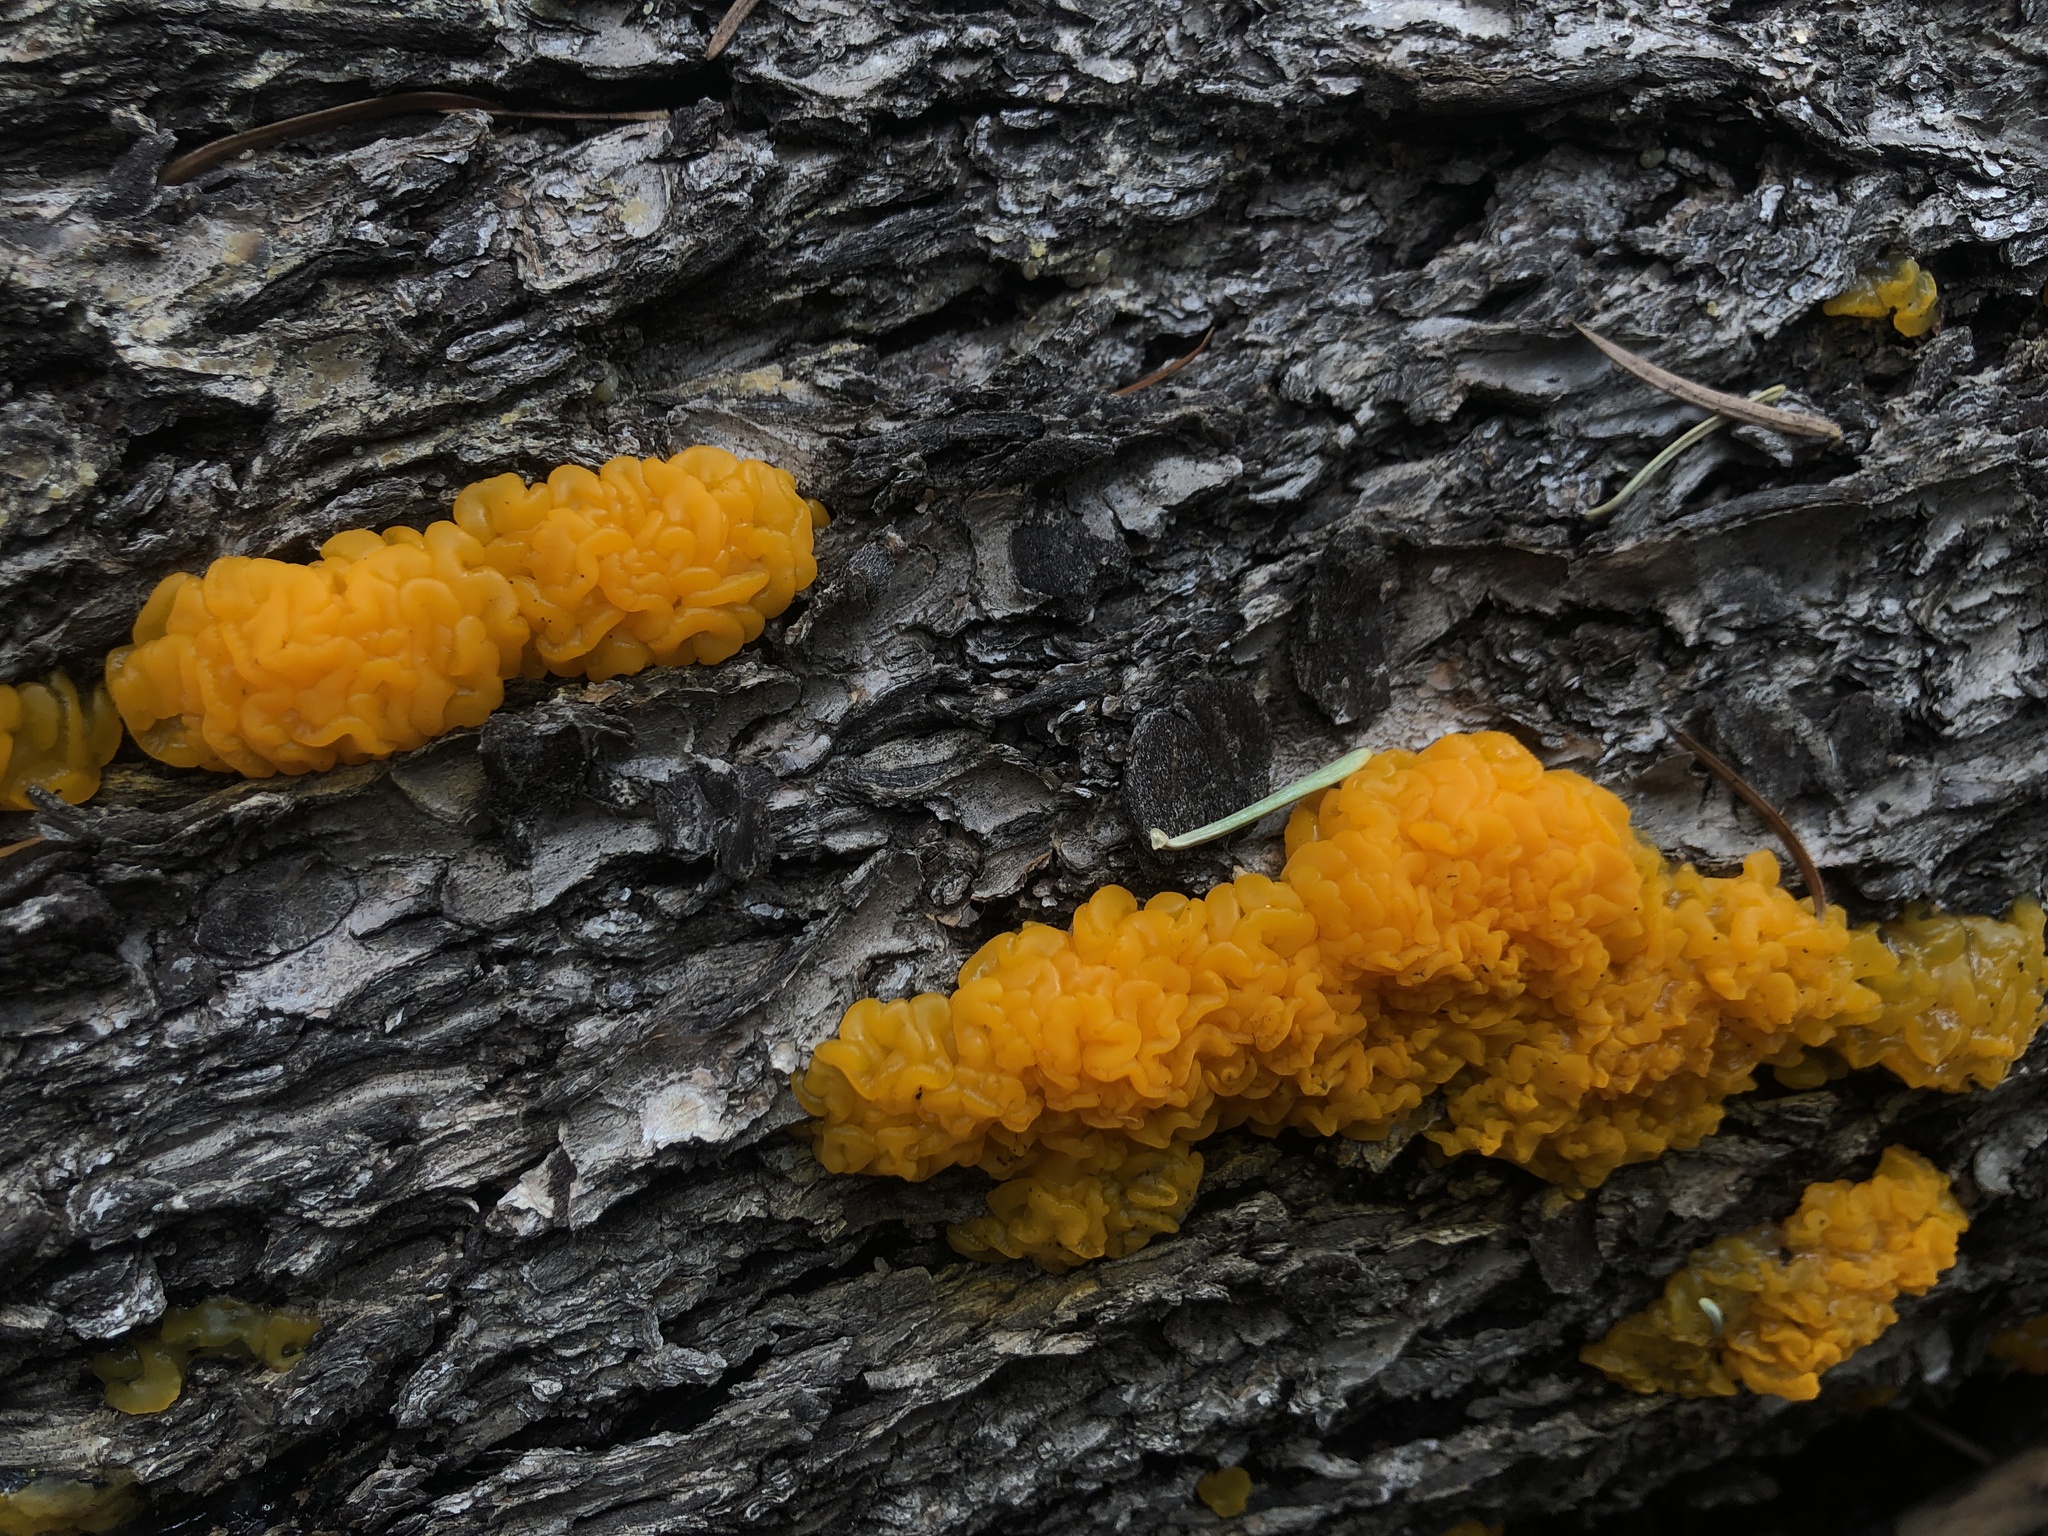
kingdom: Fungi
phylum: Basidiomycota
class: Dacrymycetes
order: Dacrymycetales
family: Dacrymycetaceae
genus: Dacrymyces
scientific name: Dacrymyces dictyosporus
